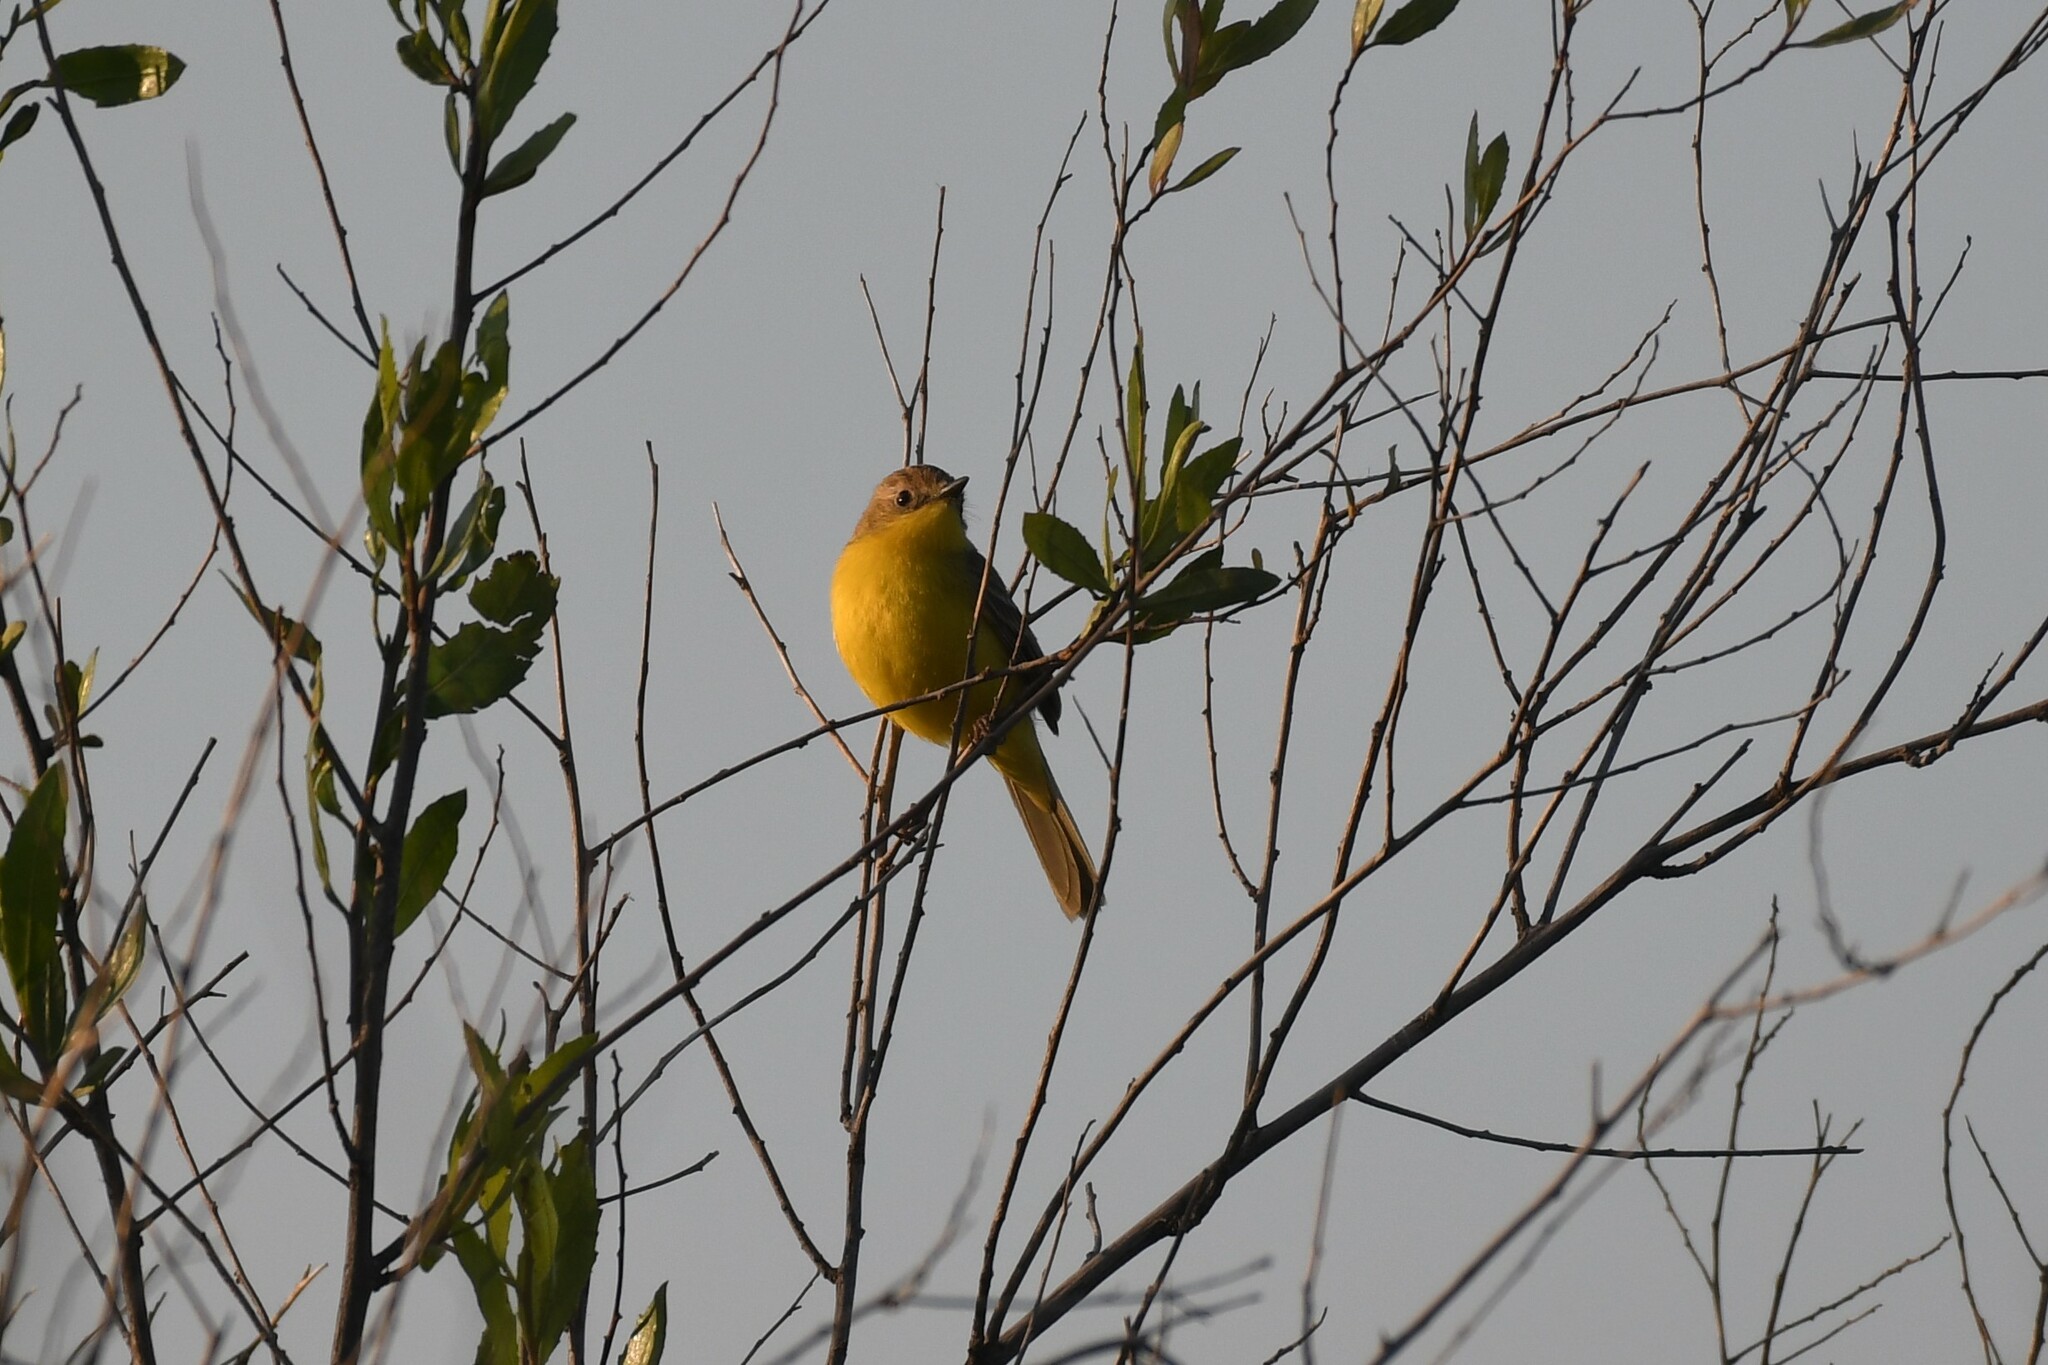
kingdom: Animalia
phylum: Chordata
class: Aves
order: Passeriformes
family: Tyrannidae
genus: Pseudocolopteryx
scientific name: Pseudocolopteryx dinelliana
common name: Dinelli's doradito
